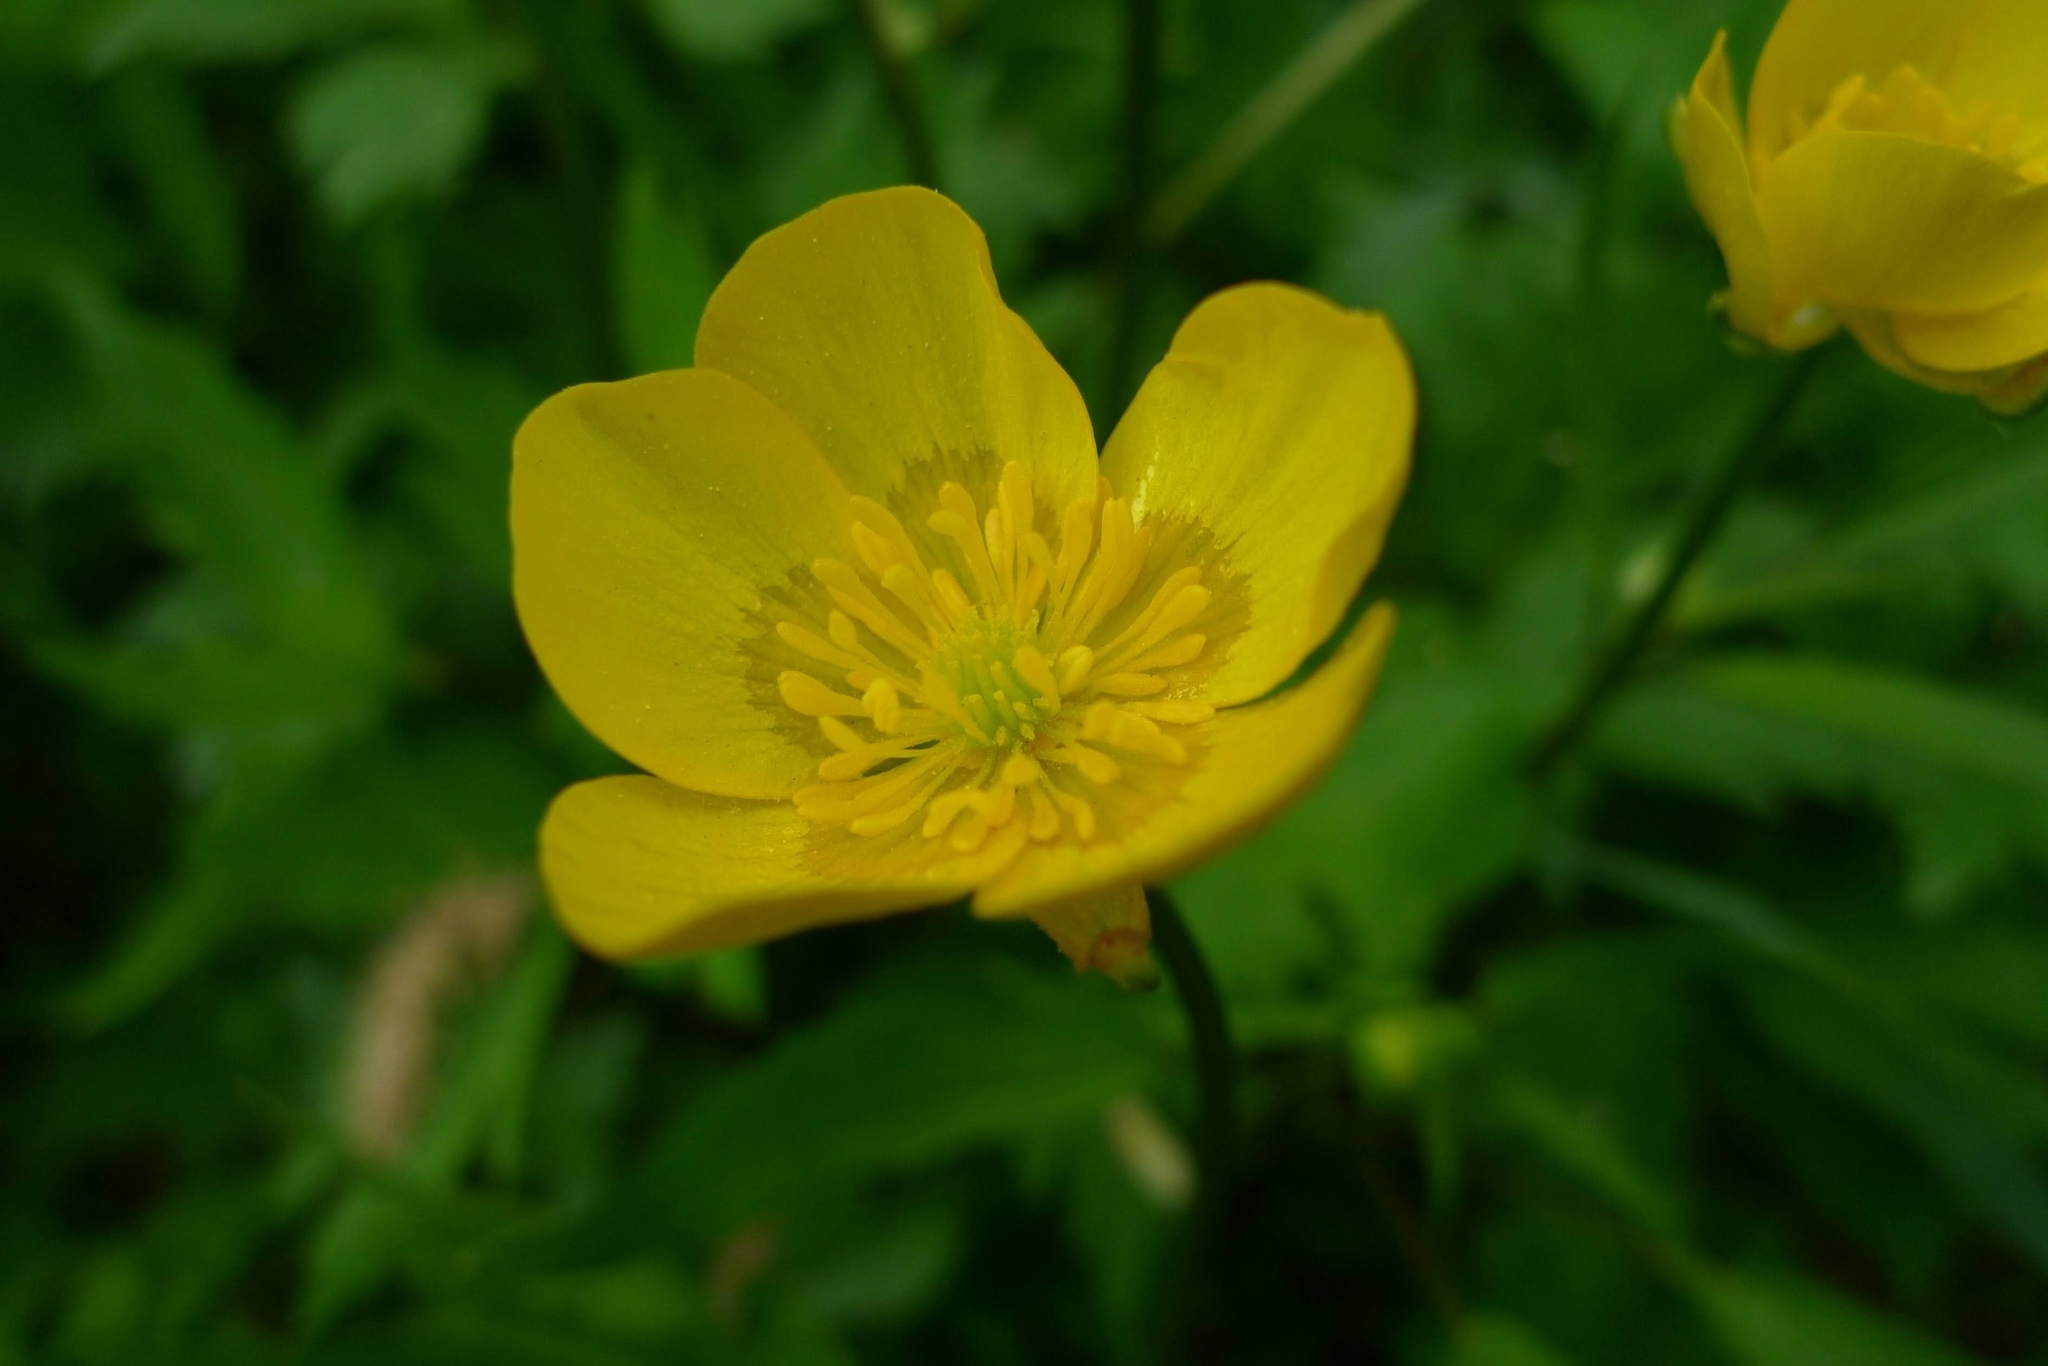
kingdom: Plantae
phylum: Tracheophyta
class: Magnoliopsida
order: Ranunculales
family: Ranunculaceae
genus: Ranunculus
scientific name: Ranunculus repens
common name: Creeping buttercup
